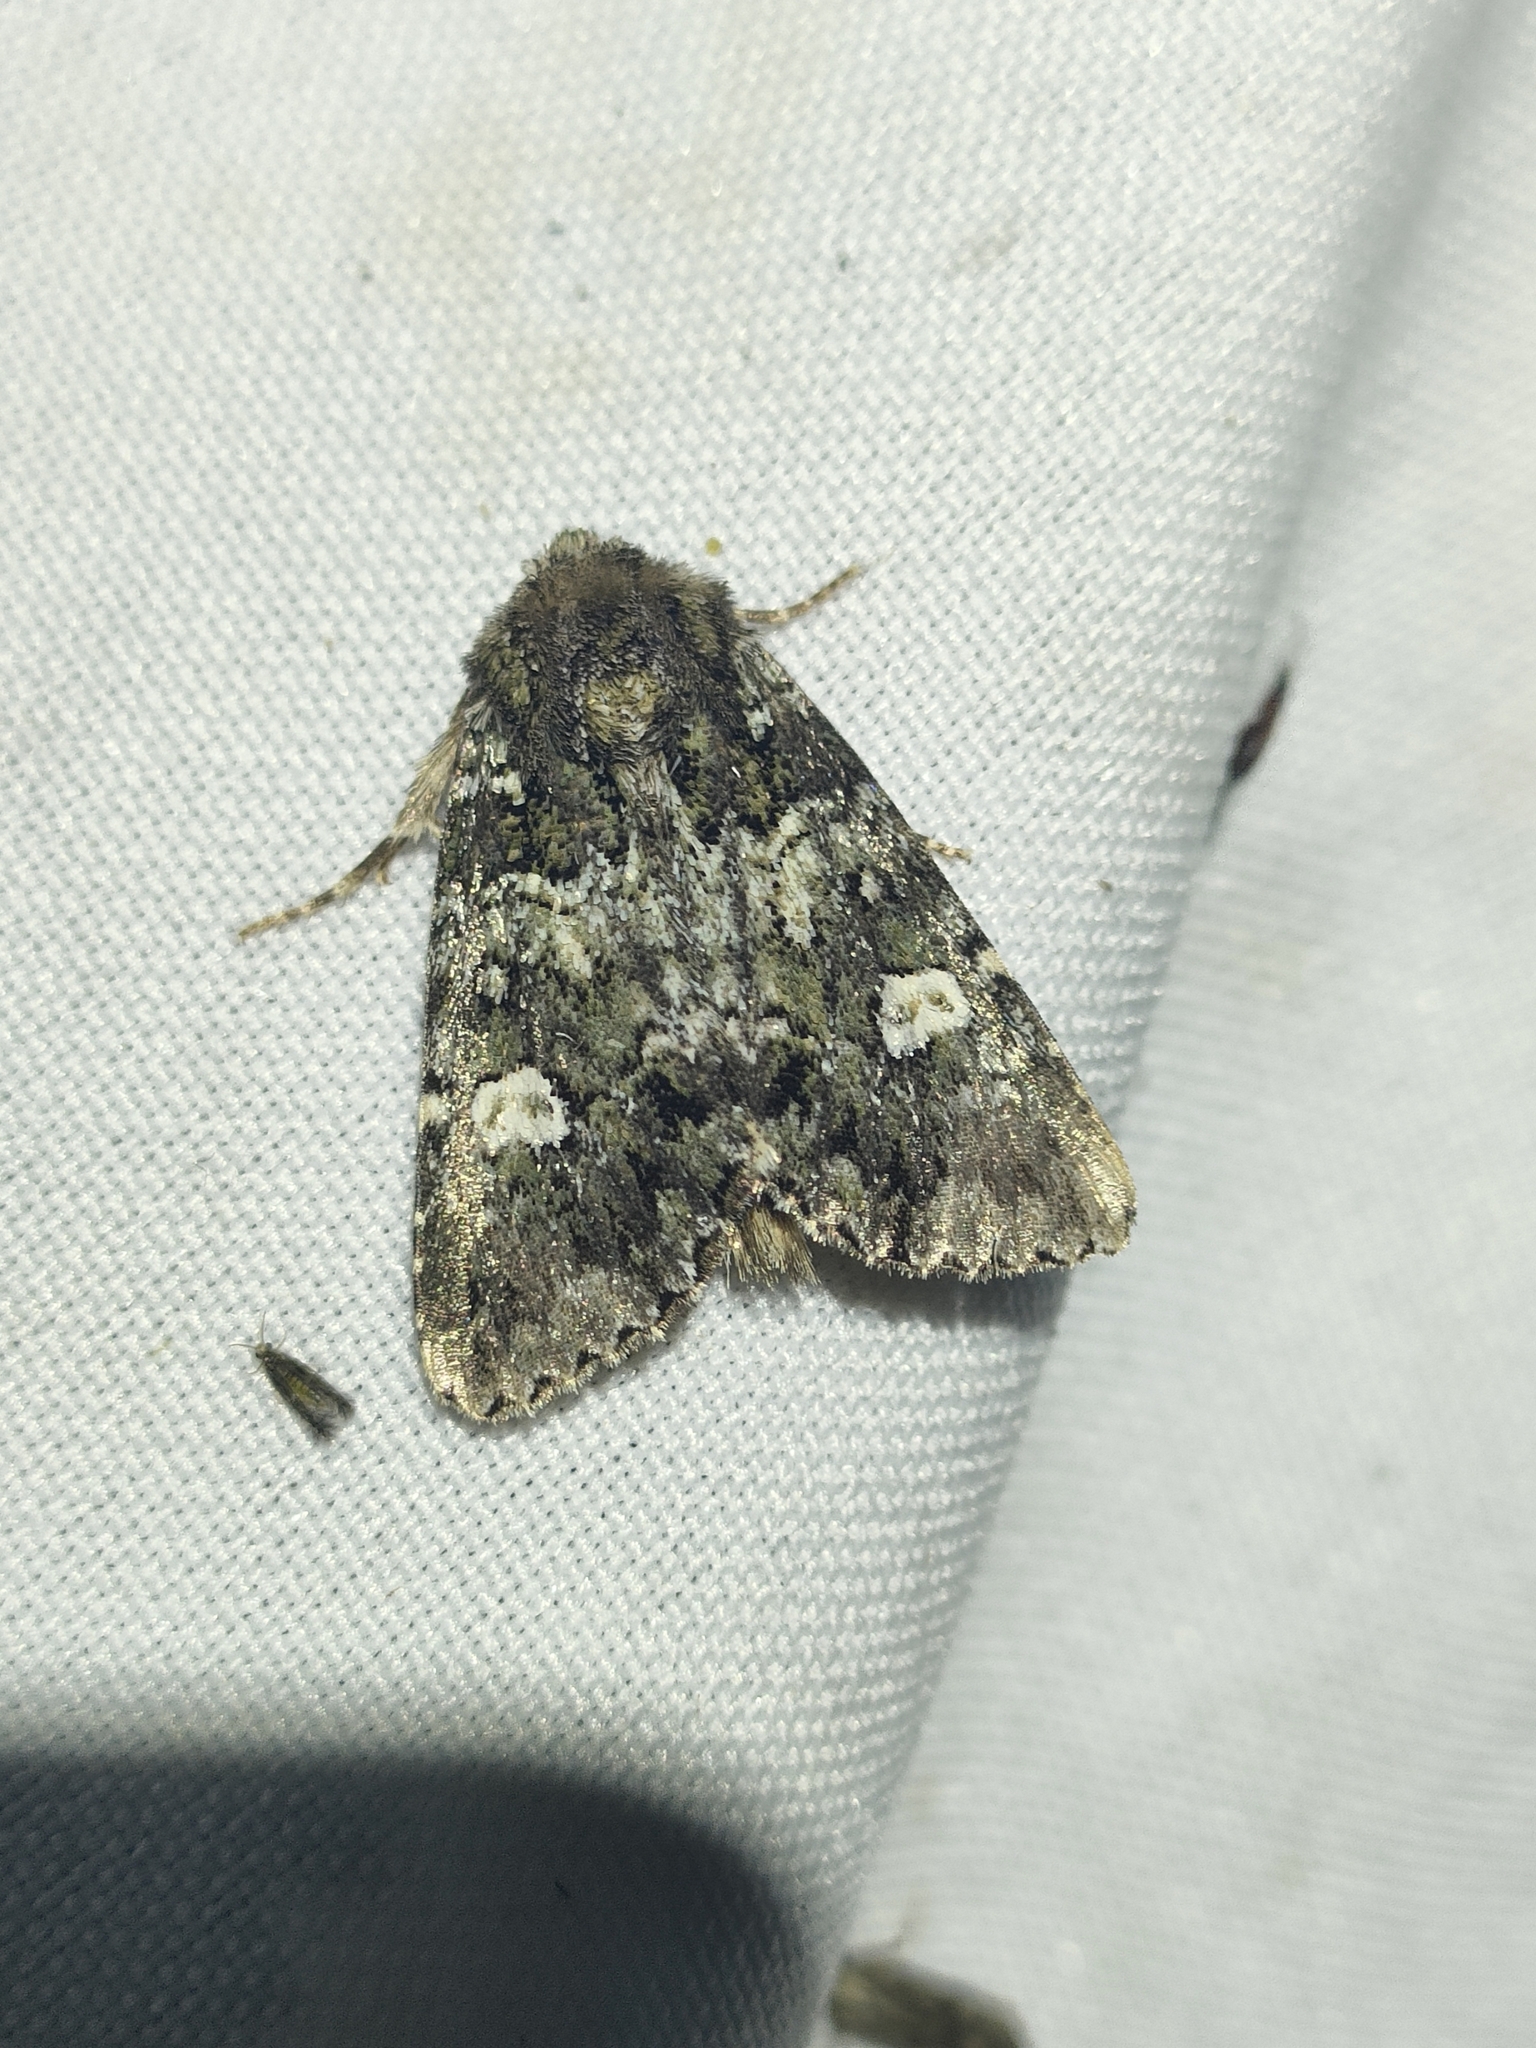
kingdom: Animalia
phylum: Arthropoda
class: Insecta
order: Lepidoptera
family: Noctuidae
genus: Olivenebula
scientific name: Olivenebula xanthochloris
